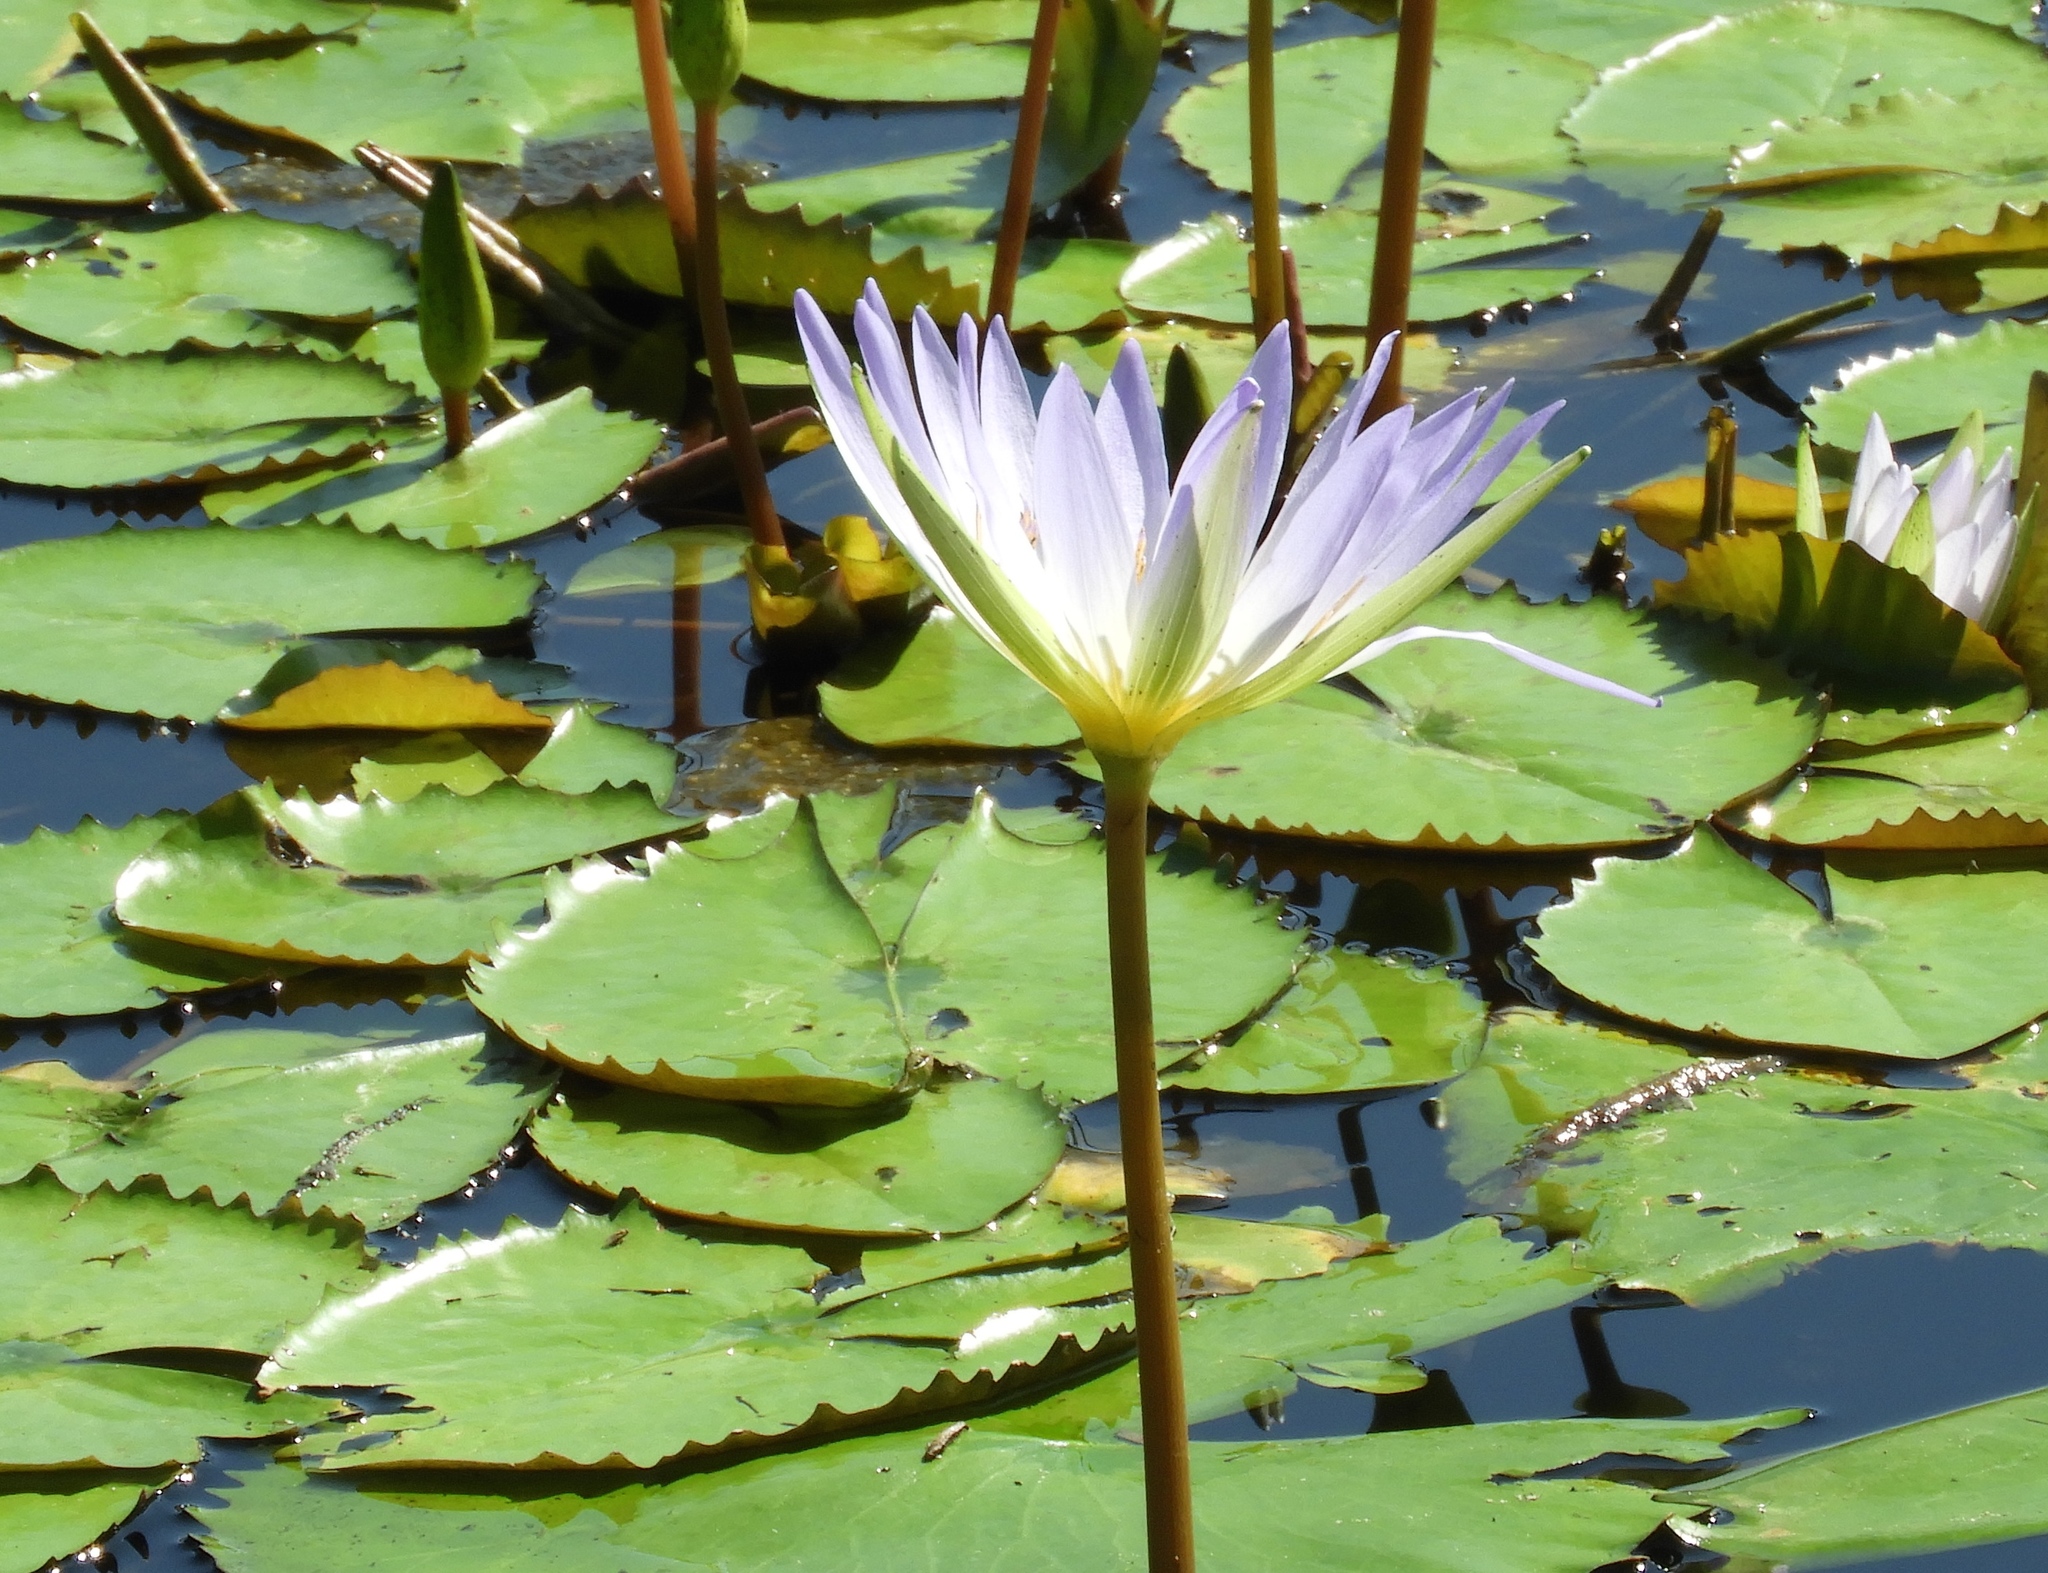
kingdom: Plantae
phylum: Tracheophyta
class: Magnoliopsida
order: Nymphaeales
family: Nymphaeaceae
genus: Nymphaea
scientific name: Nymphaea elegans
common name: Blue water-lily
